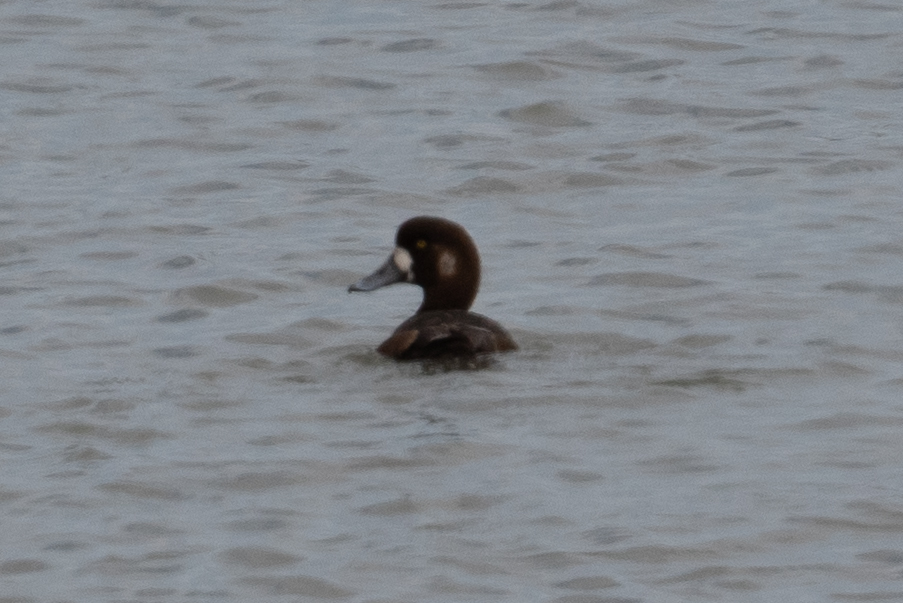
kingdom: Animalia
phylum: Chordata
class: Aves
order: Anseriformes
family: Anatidae
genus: Aythya
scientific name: Aythya marila
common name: Greater scaup
